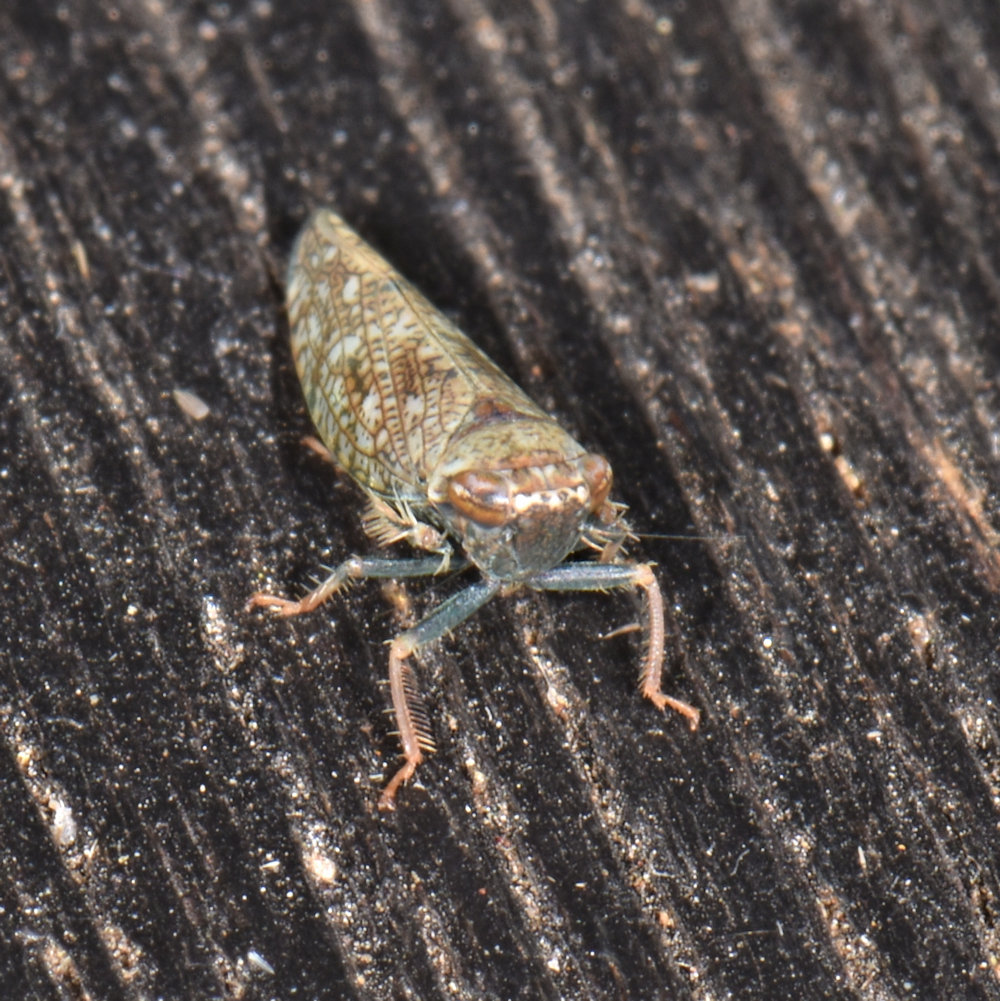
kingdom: Animalia
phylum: Arthropoda
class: Insecta
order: Hemiptera
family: Cicadellidae
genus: Orientus
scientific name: Orientus ishidae
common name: Japanese leafhopper
